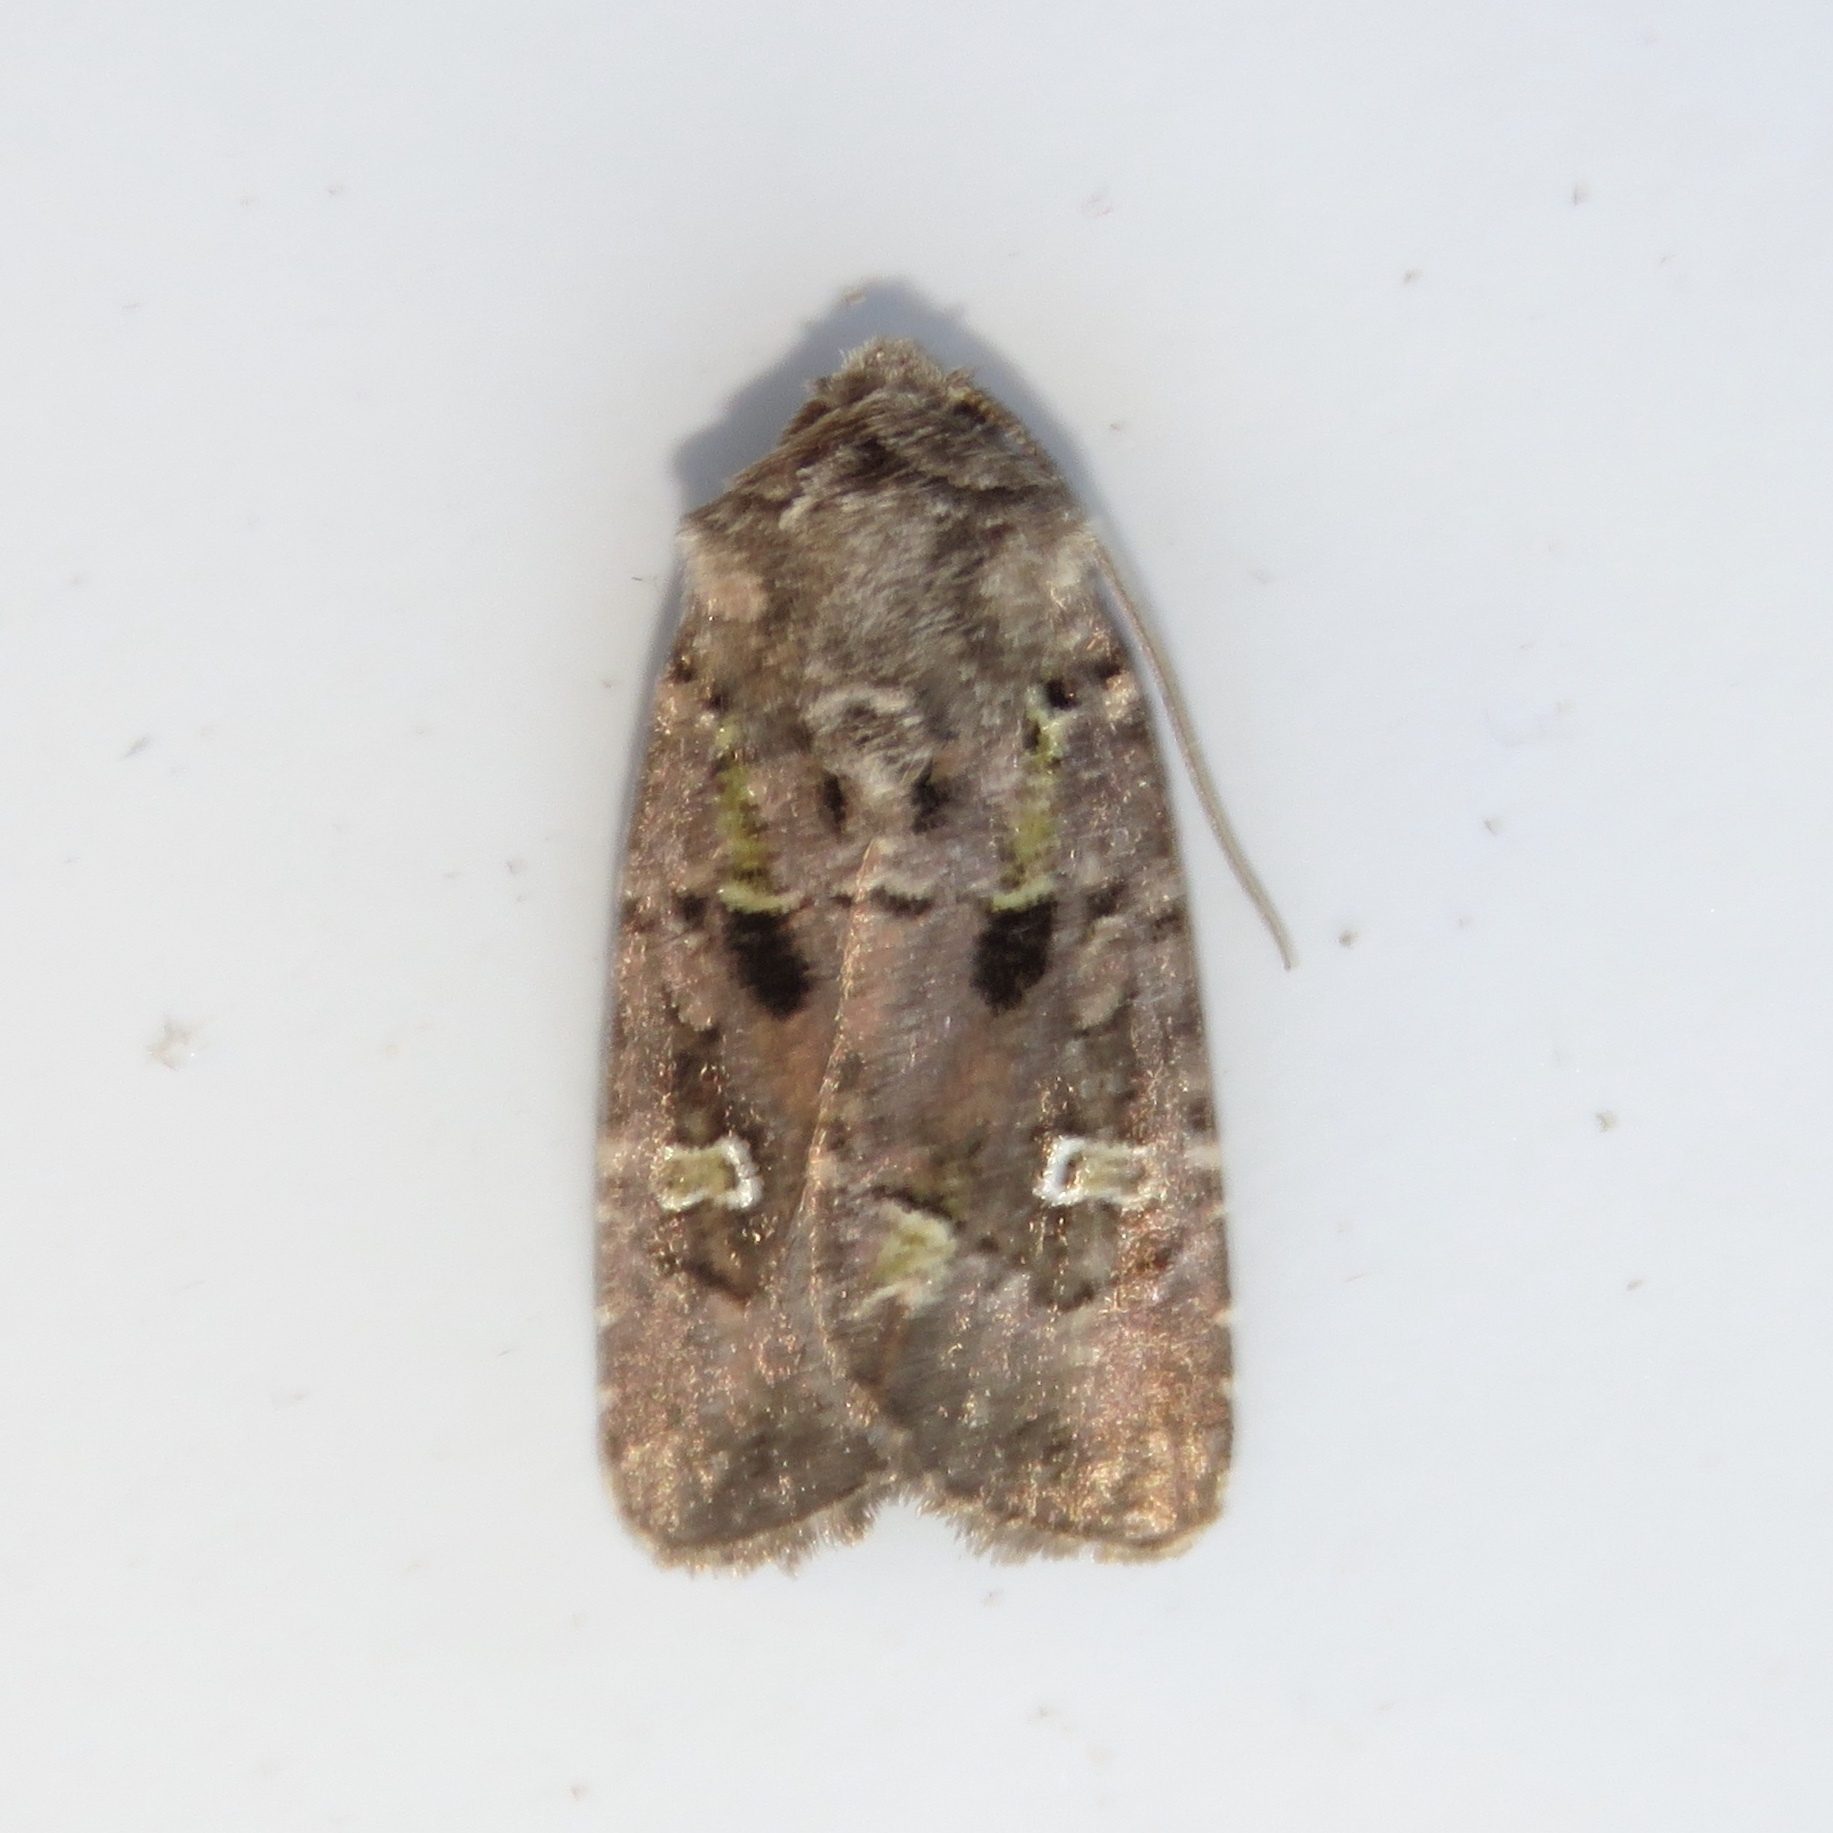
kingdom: Animalia
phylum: Arthropoda
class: Insecta
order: Lepidoptera
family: Noctuidae
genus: Lacinipolia
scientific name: Lacinipolia renigera
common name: Kidney-spotted minor
